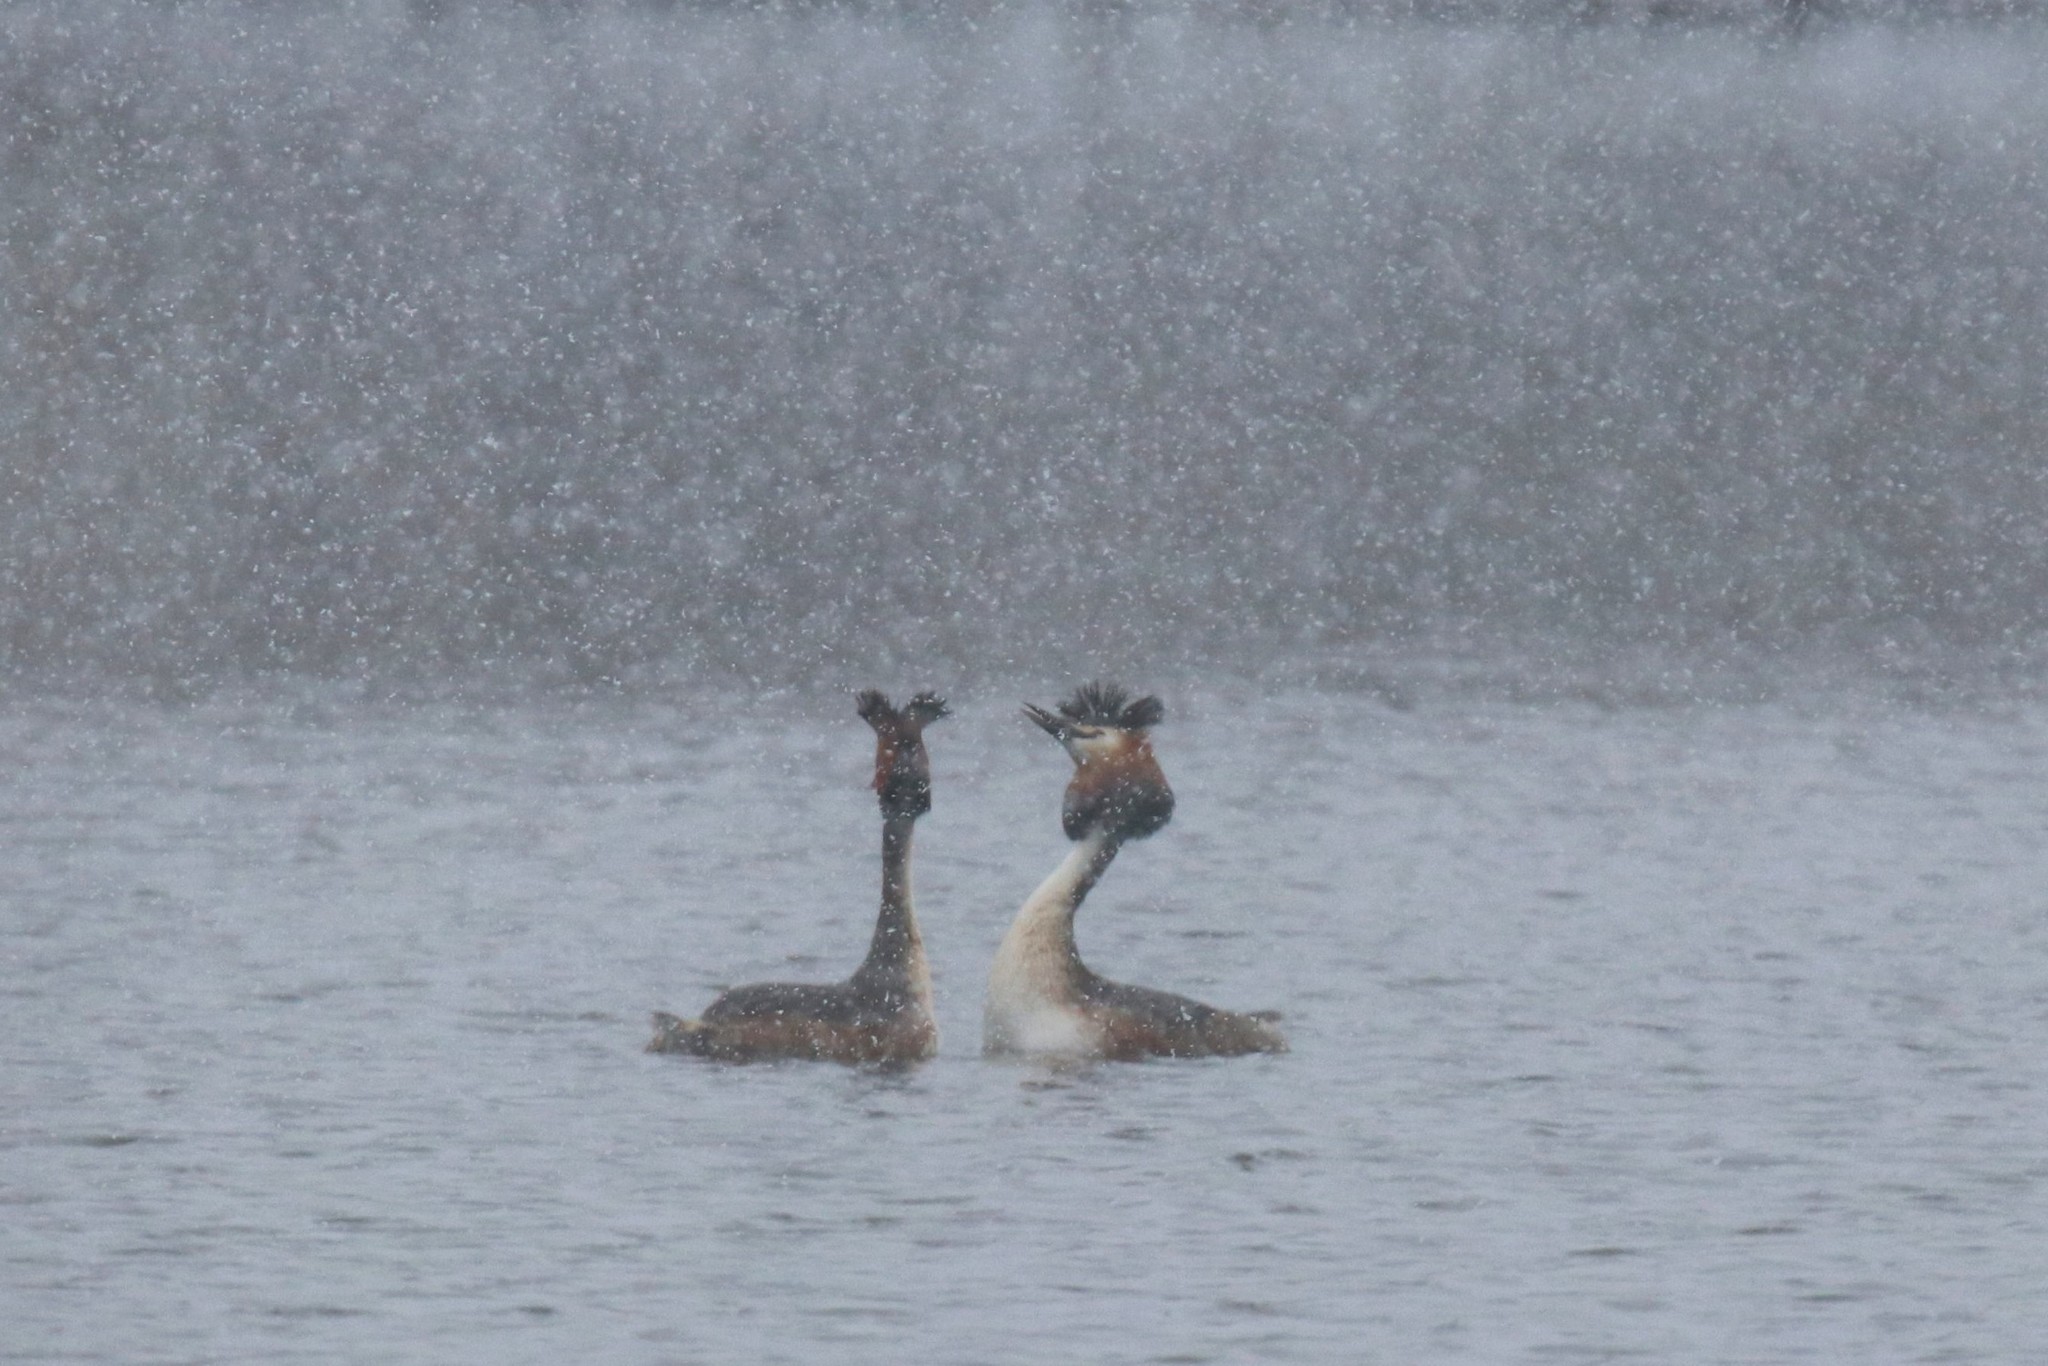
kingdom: Animalia
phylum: Chordata
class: Aves
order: Podicipediformes
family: Podicipedidae
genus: Podiceps
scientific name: Podiceps cristatus
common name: Great crested grebe
